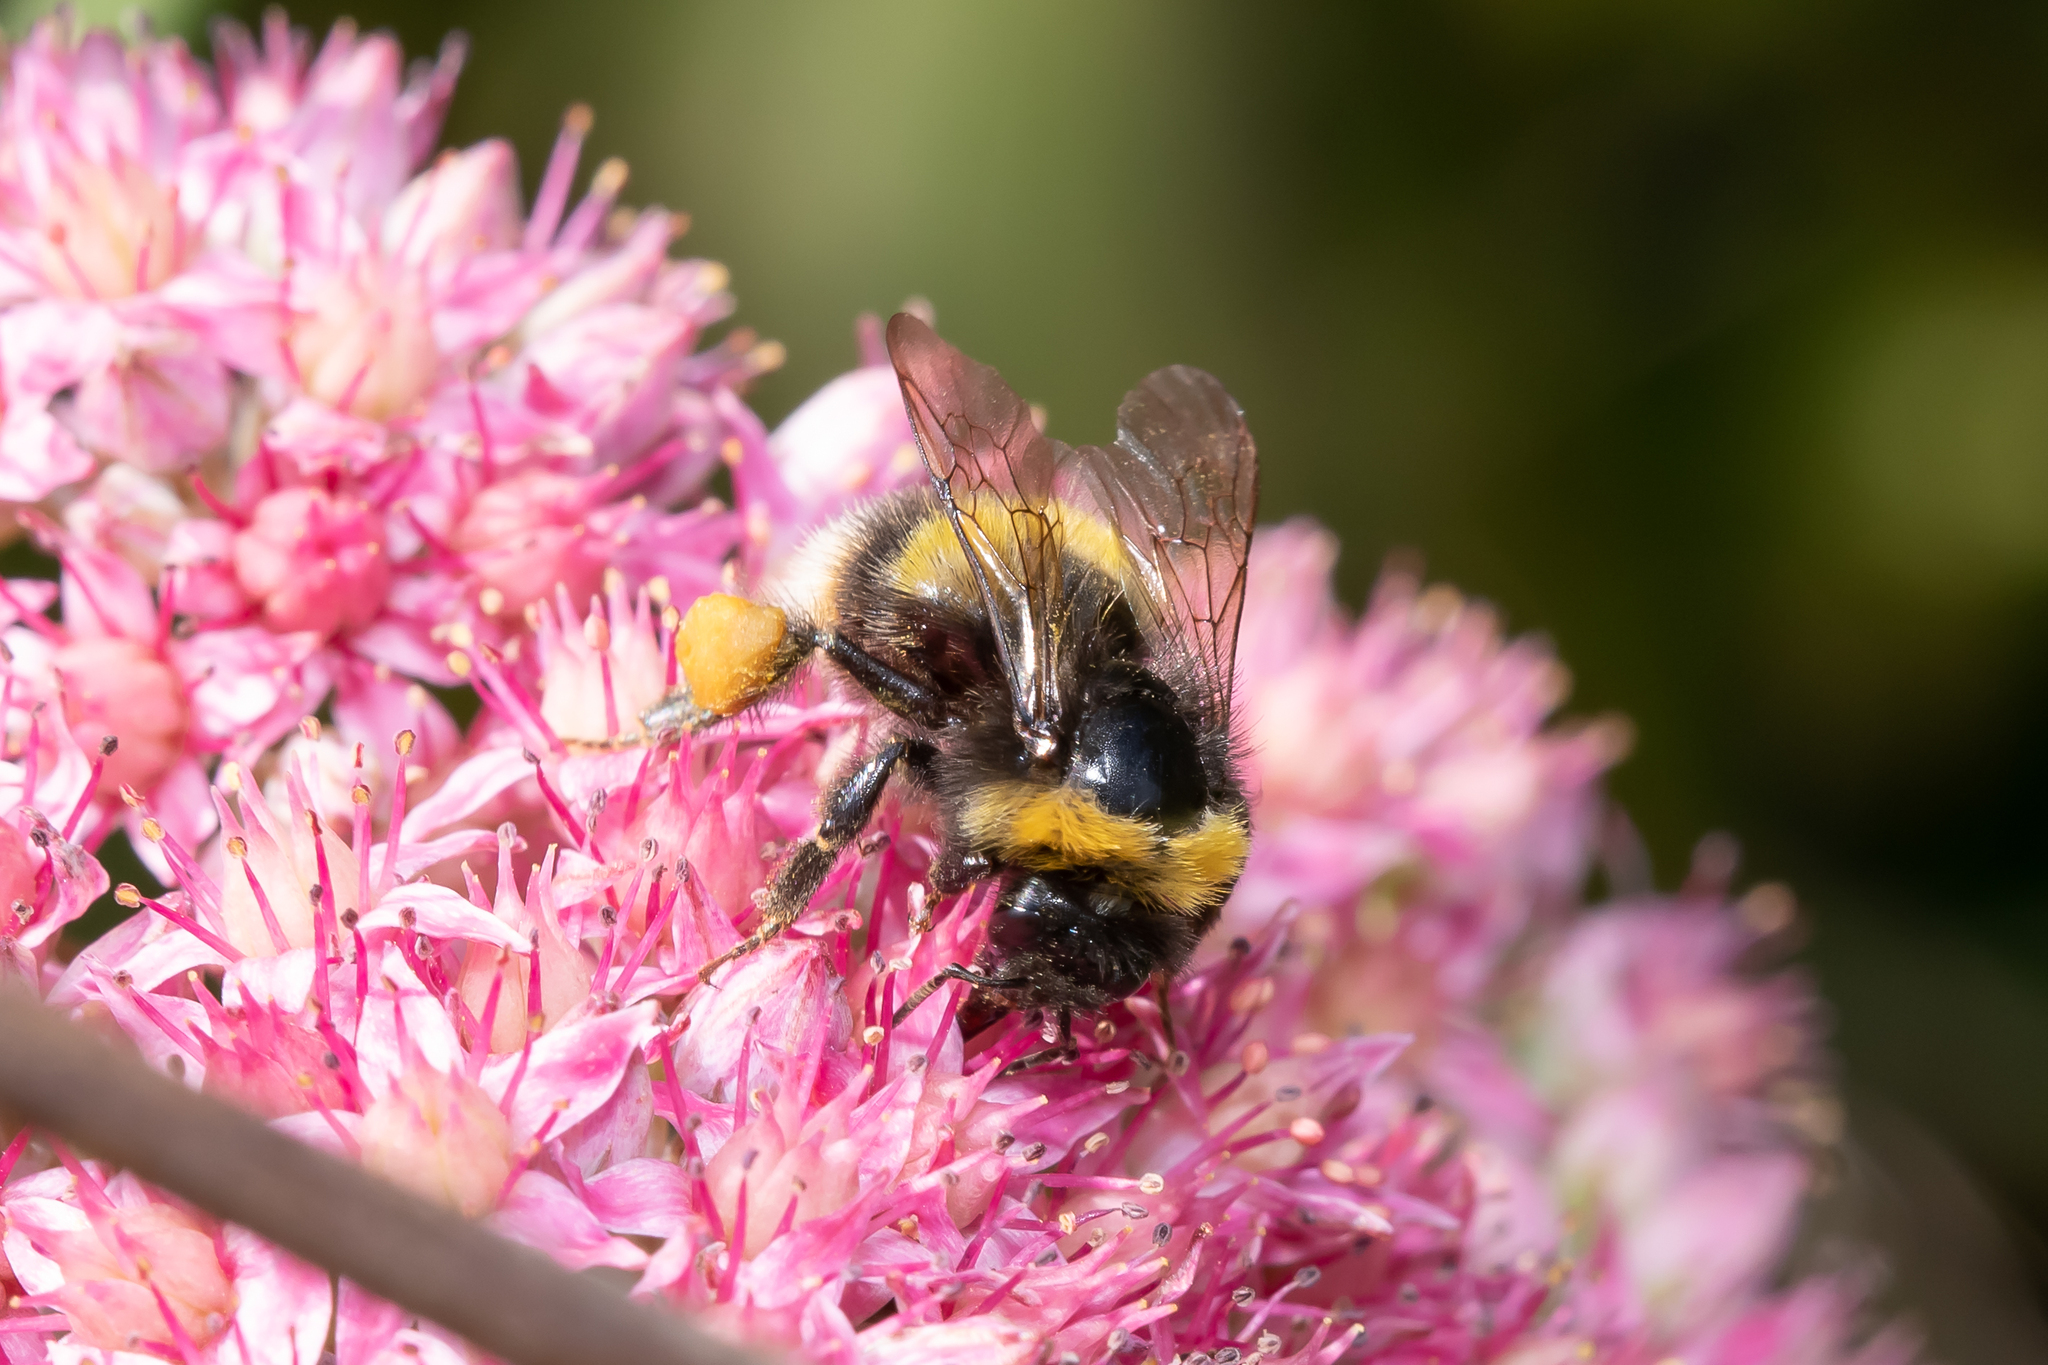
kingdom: Animalia
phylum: Arthropoda
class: Insecta
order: Hymenoptera
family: Apidae
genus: Bombus
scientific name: Bombus soroeensis
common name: Broken-belted humble-bee
